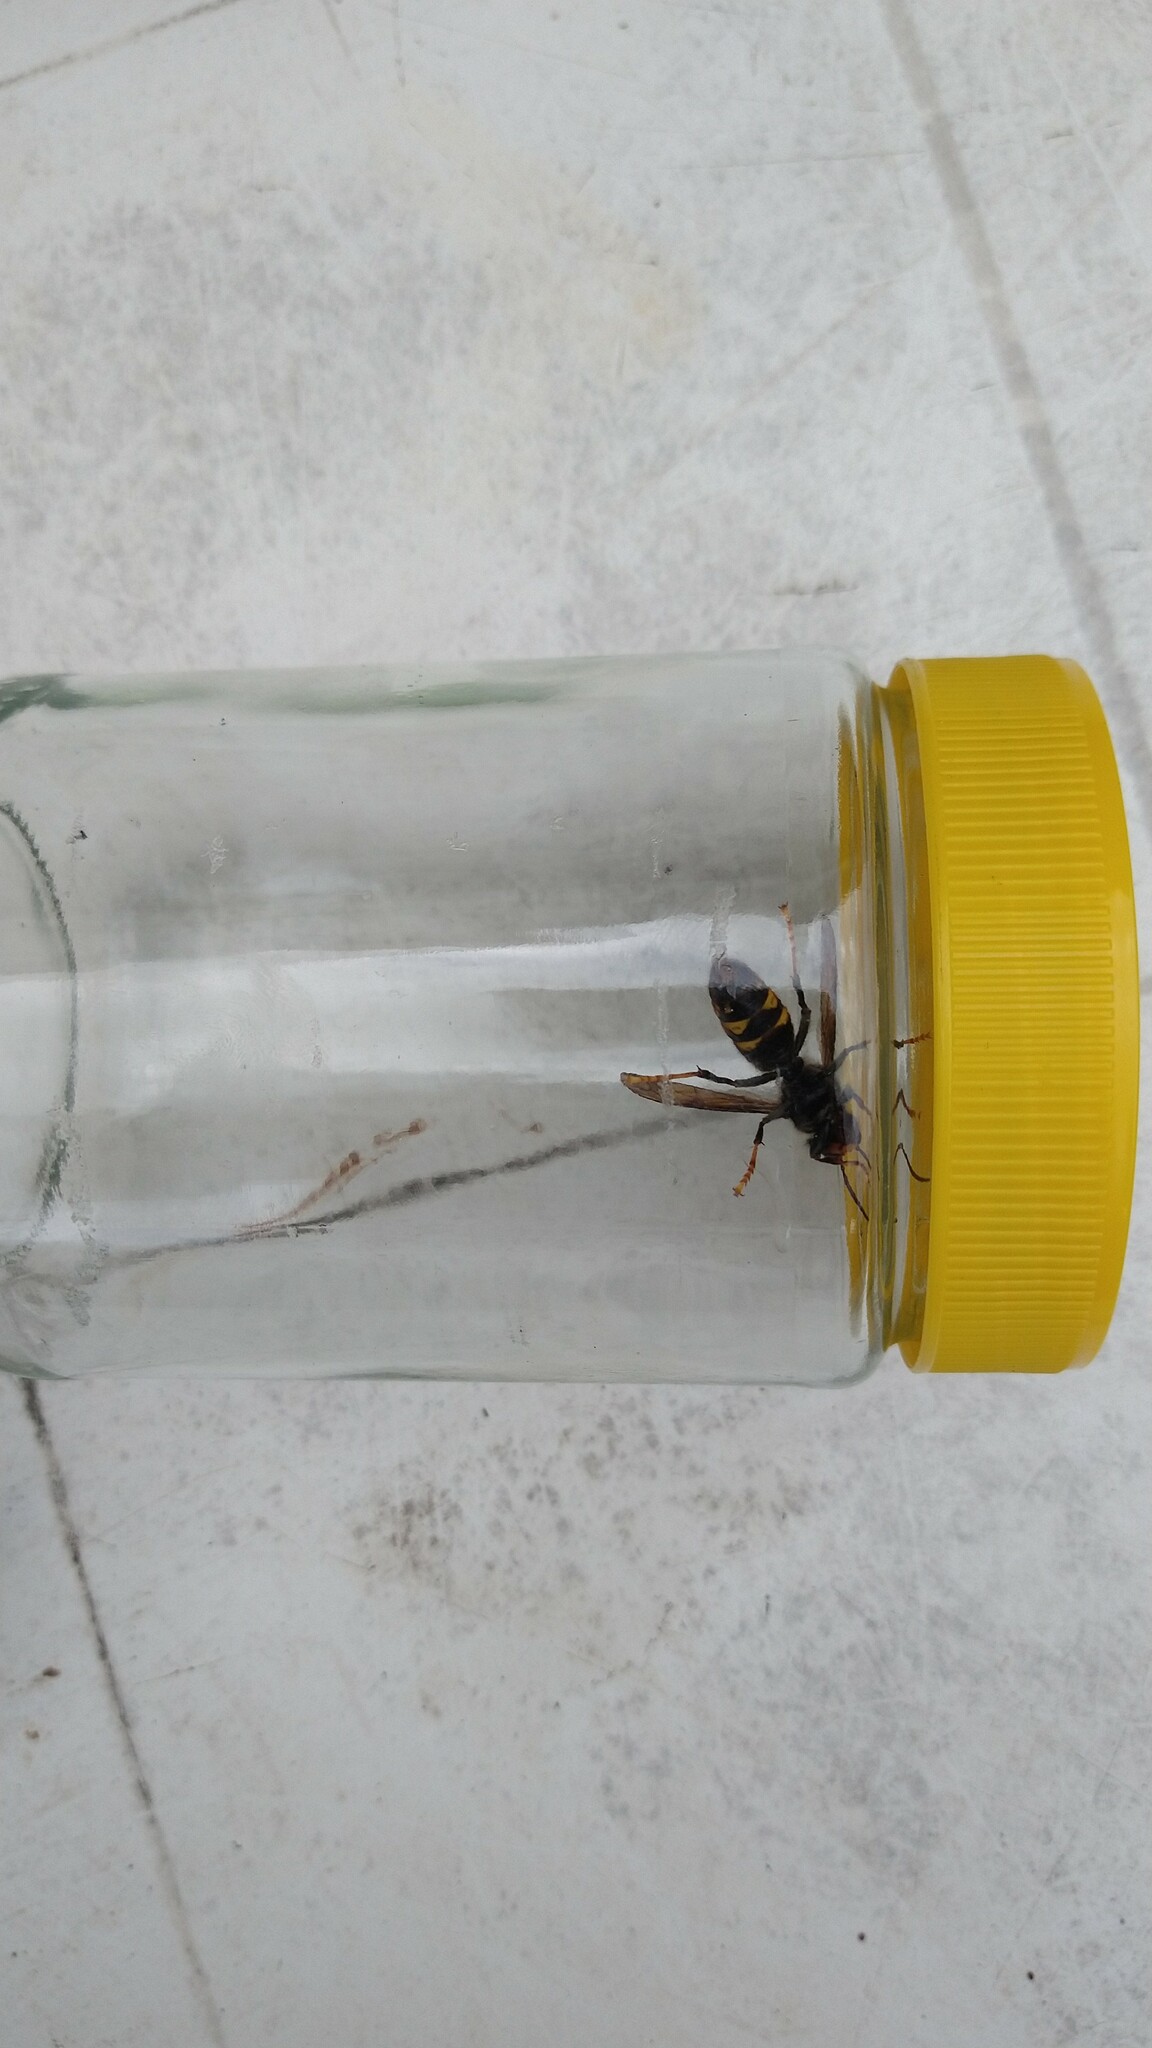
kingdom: Animalia
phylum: Arthropoda
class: Insecta
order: Hymenoptera
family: Vespidae
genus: Vespa
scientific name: Vespa velutina
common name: Asian hornet
